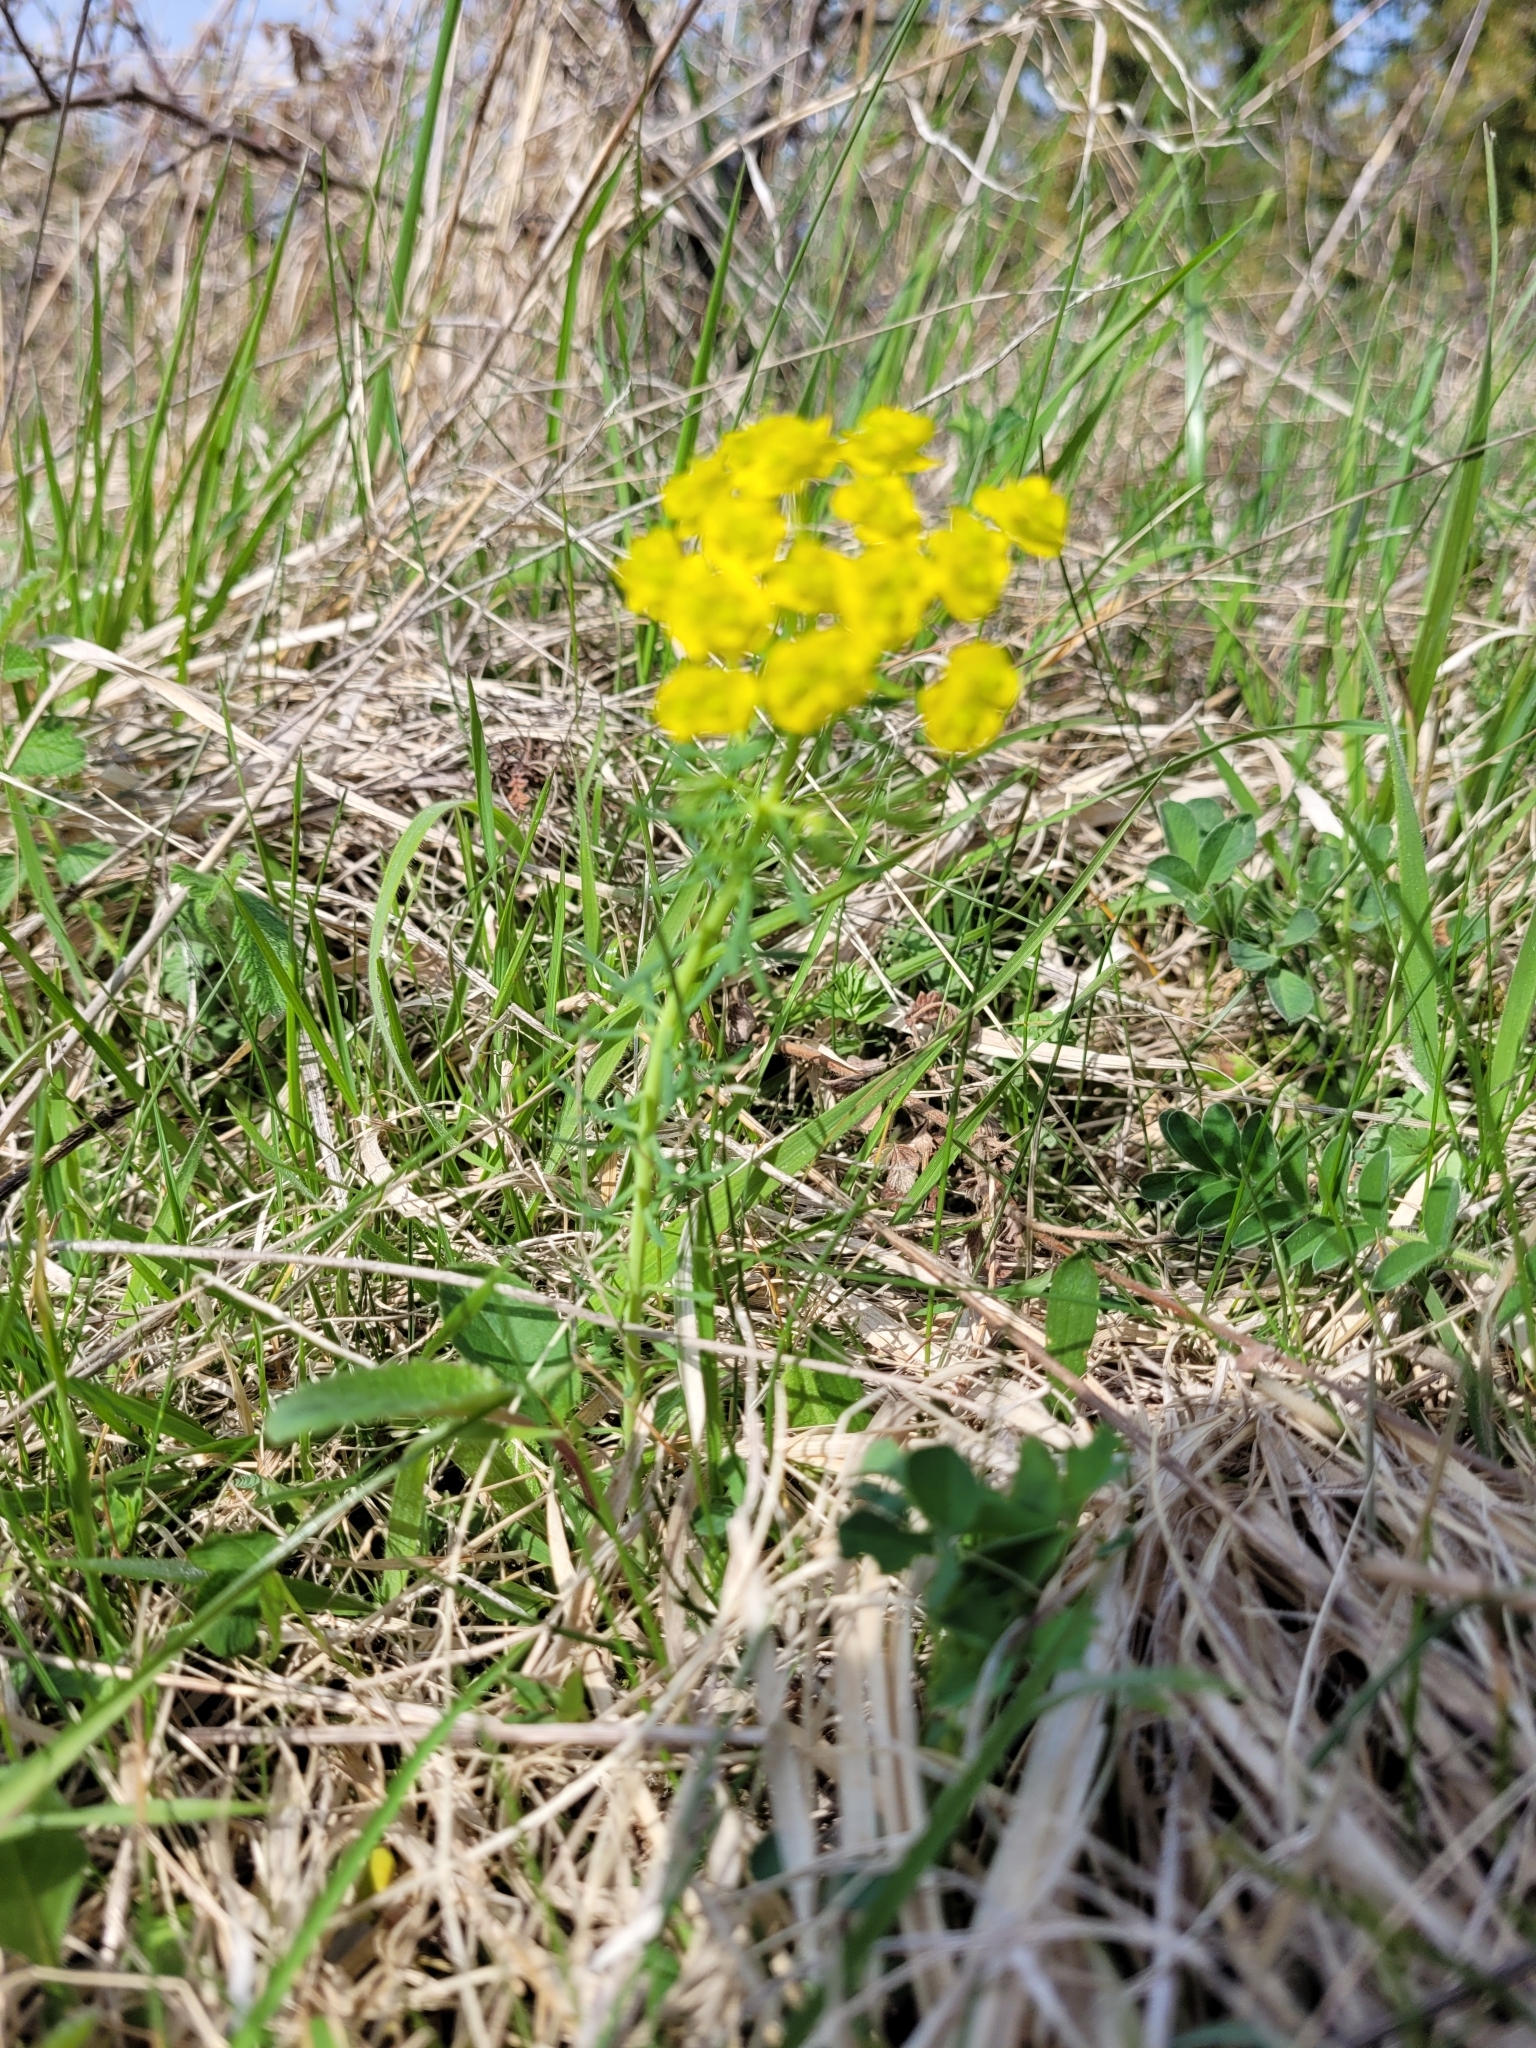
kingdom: Plantae
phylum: Tracheophyta
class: Magnoliopsida
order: Malpighiales
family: Euphorbiaceae
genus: Euphorbia
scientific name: Euphorbia cyparissias
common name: Cypress spurge
